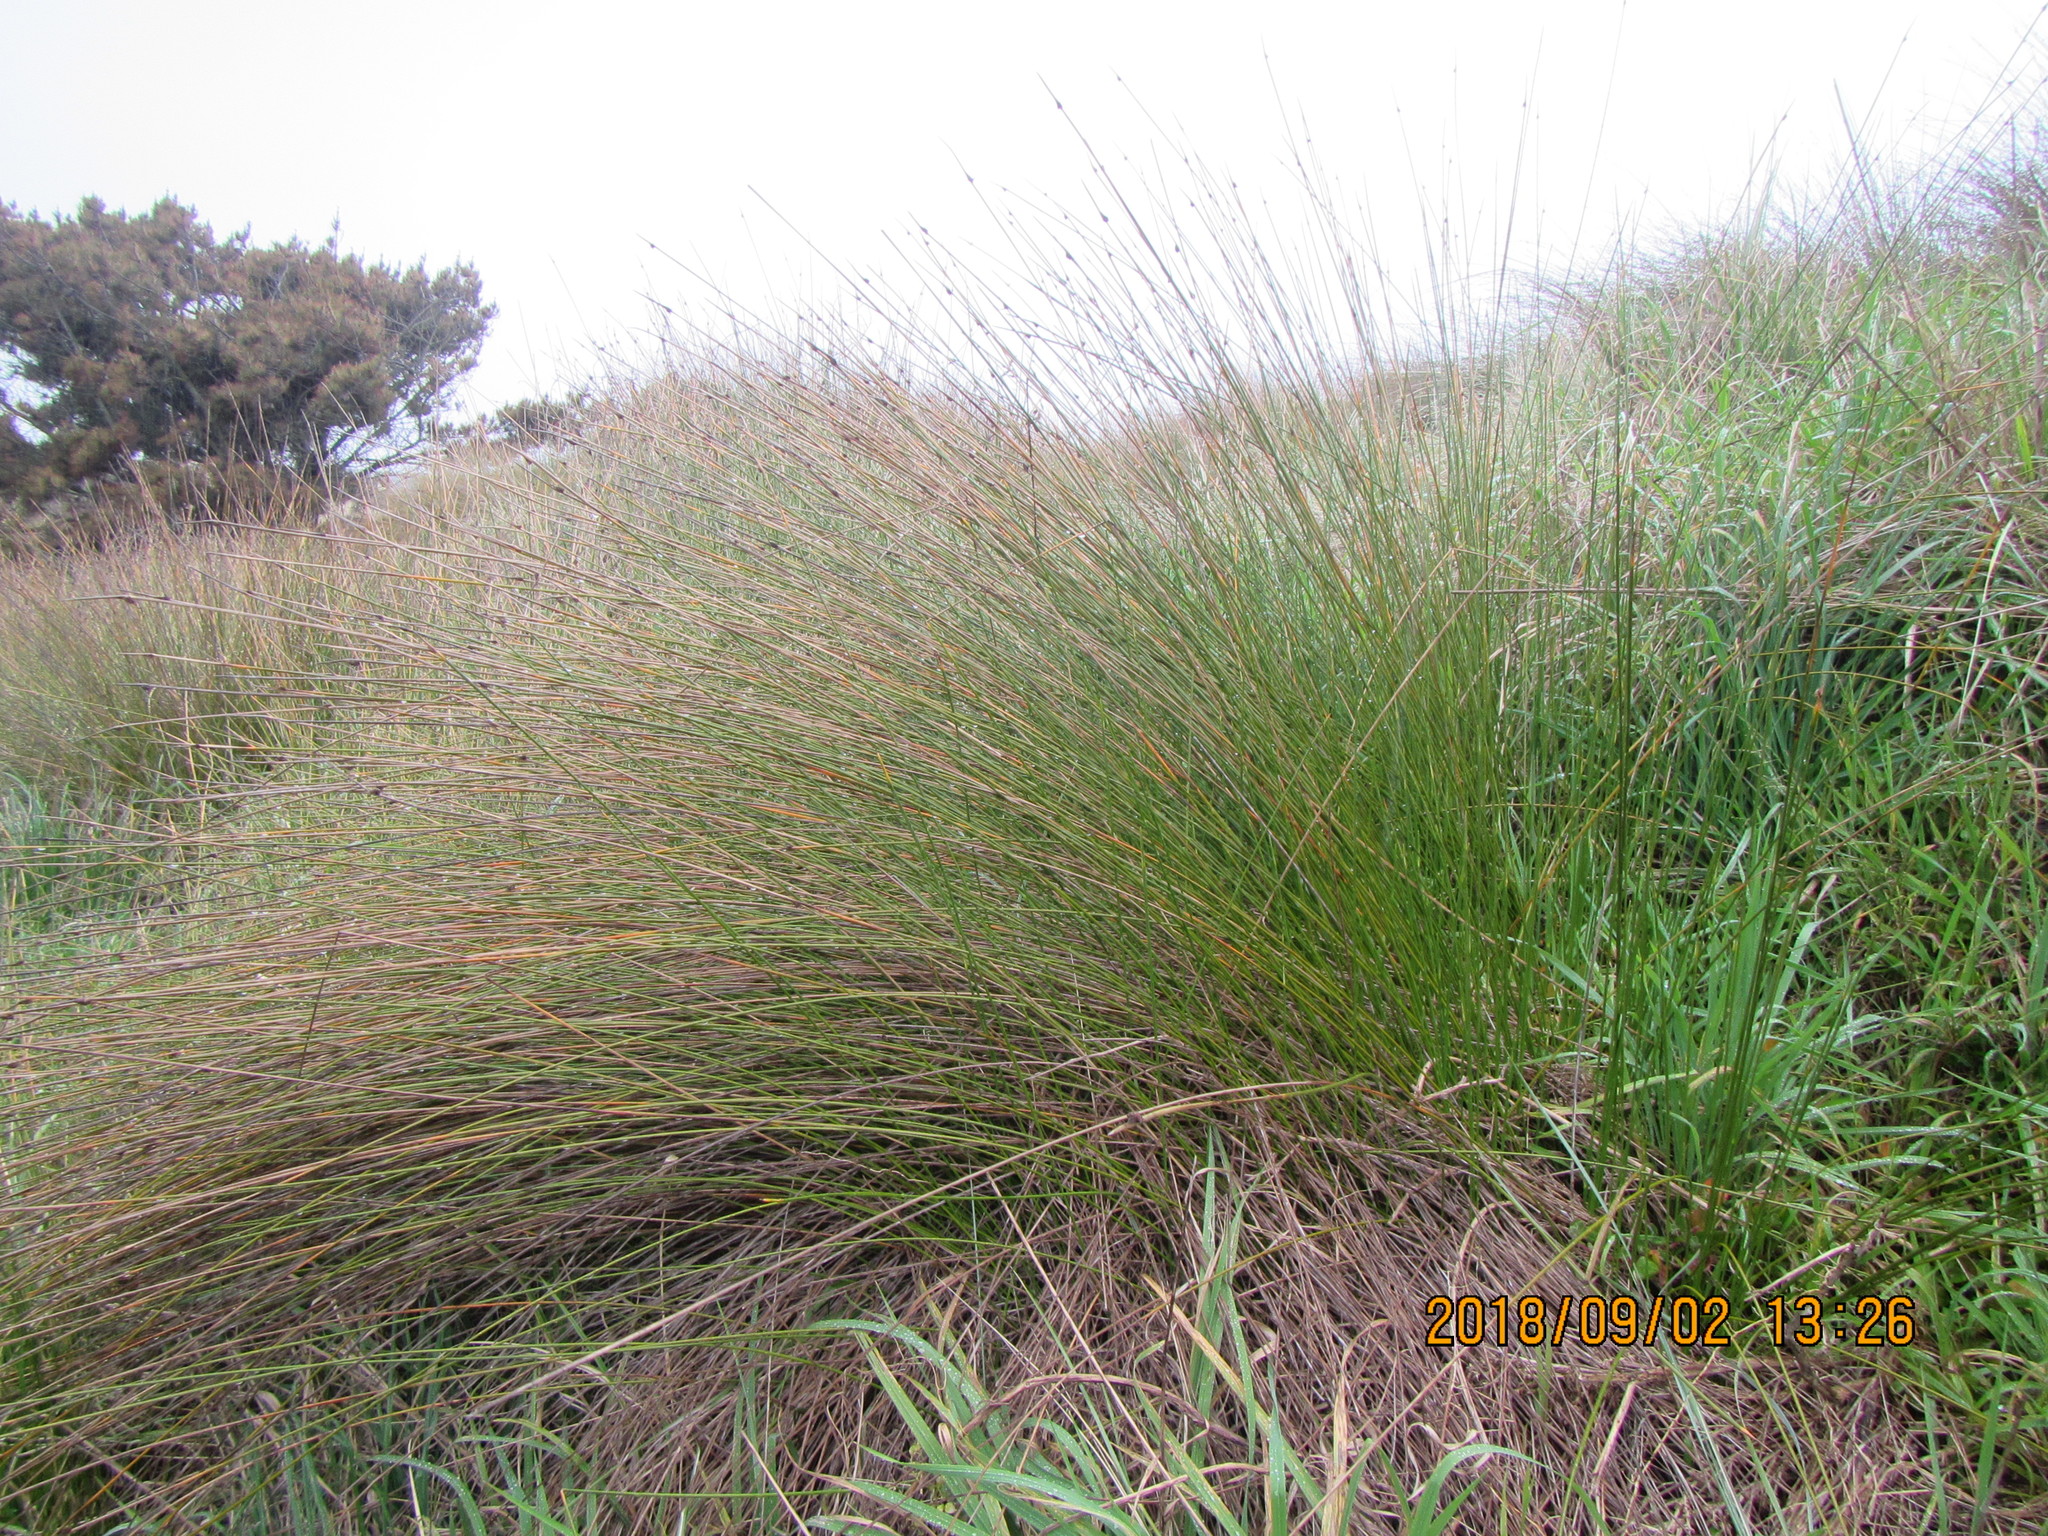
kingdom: Plantae
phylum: Tracheophyta
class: Liliopsida
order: Poales
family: Cyperaceae
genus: Ficinia
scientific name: Ficinia nodosa
